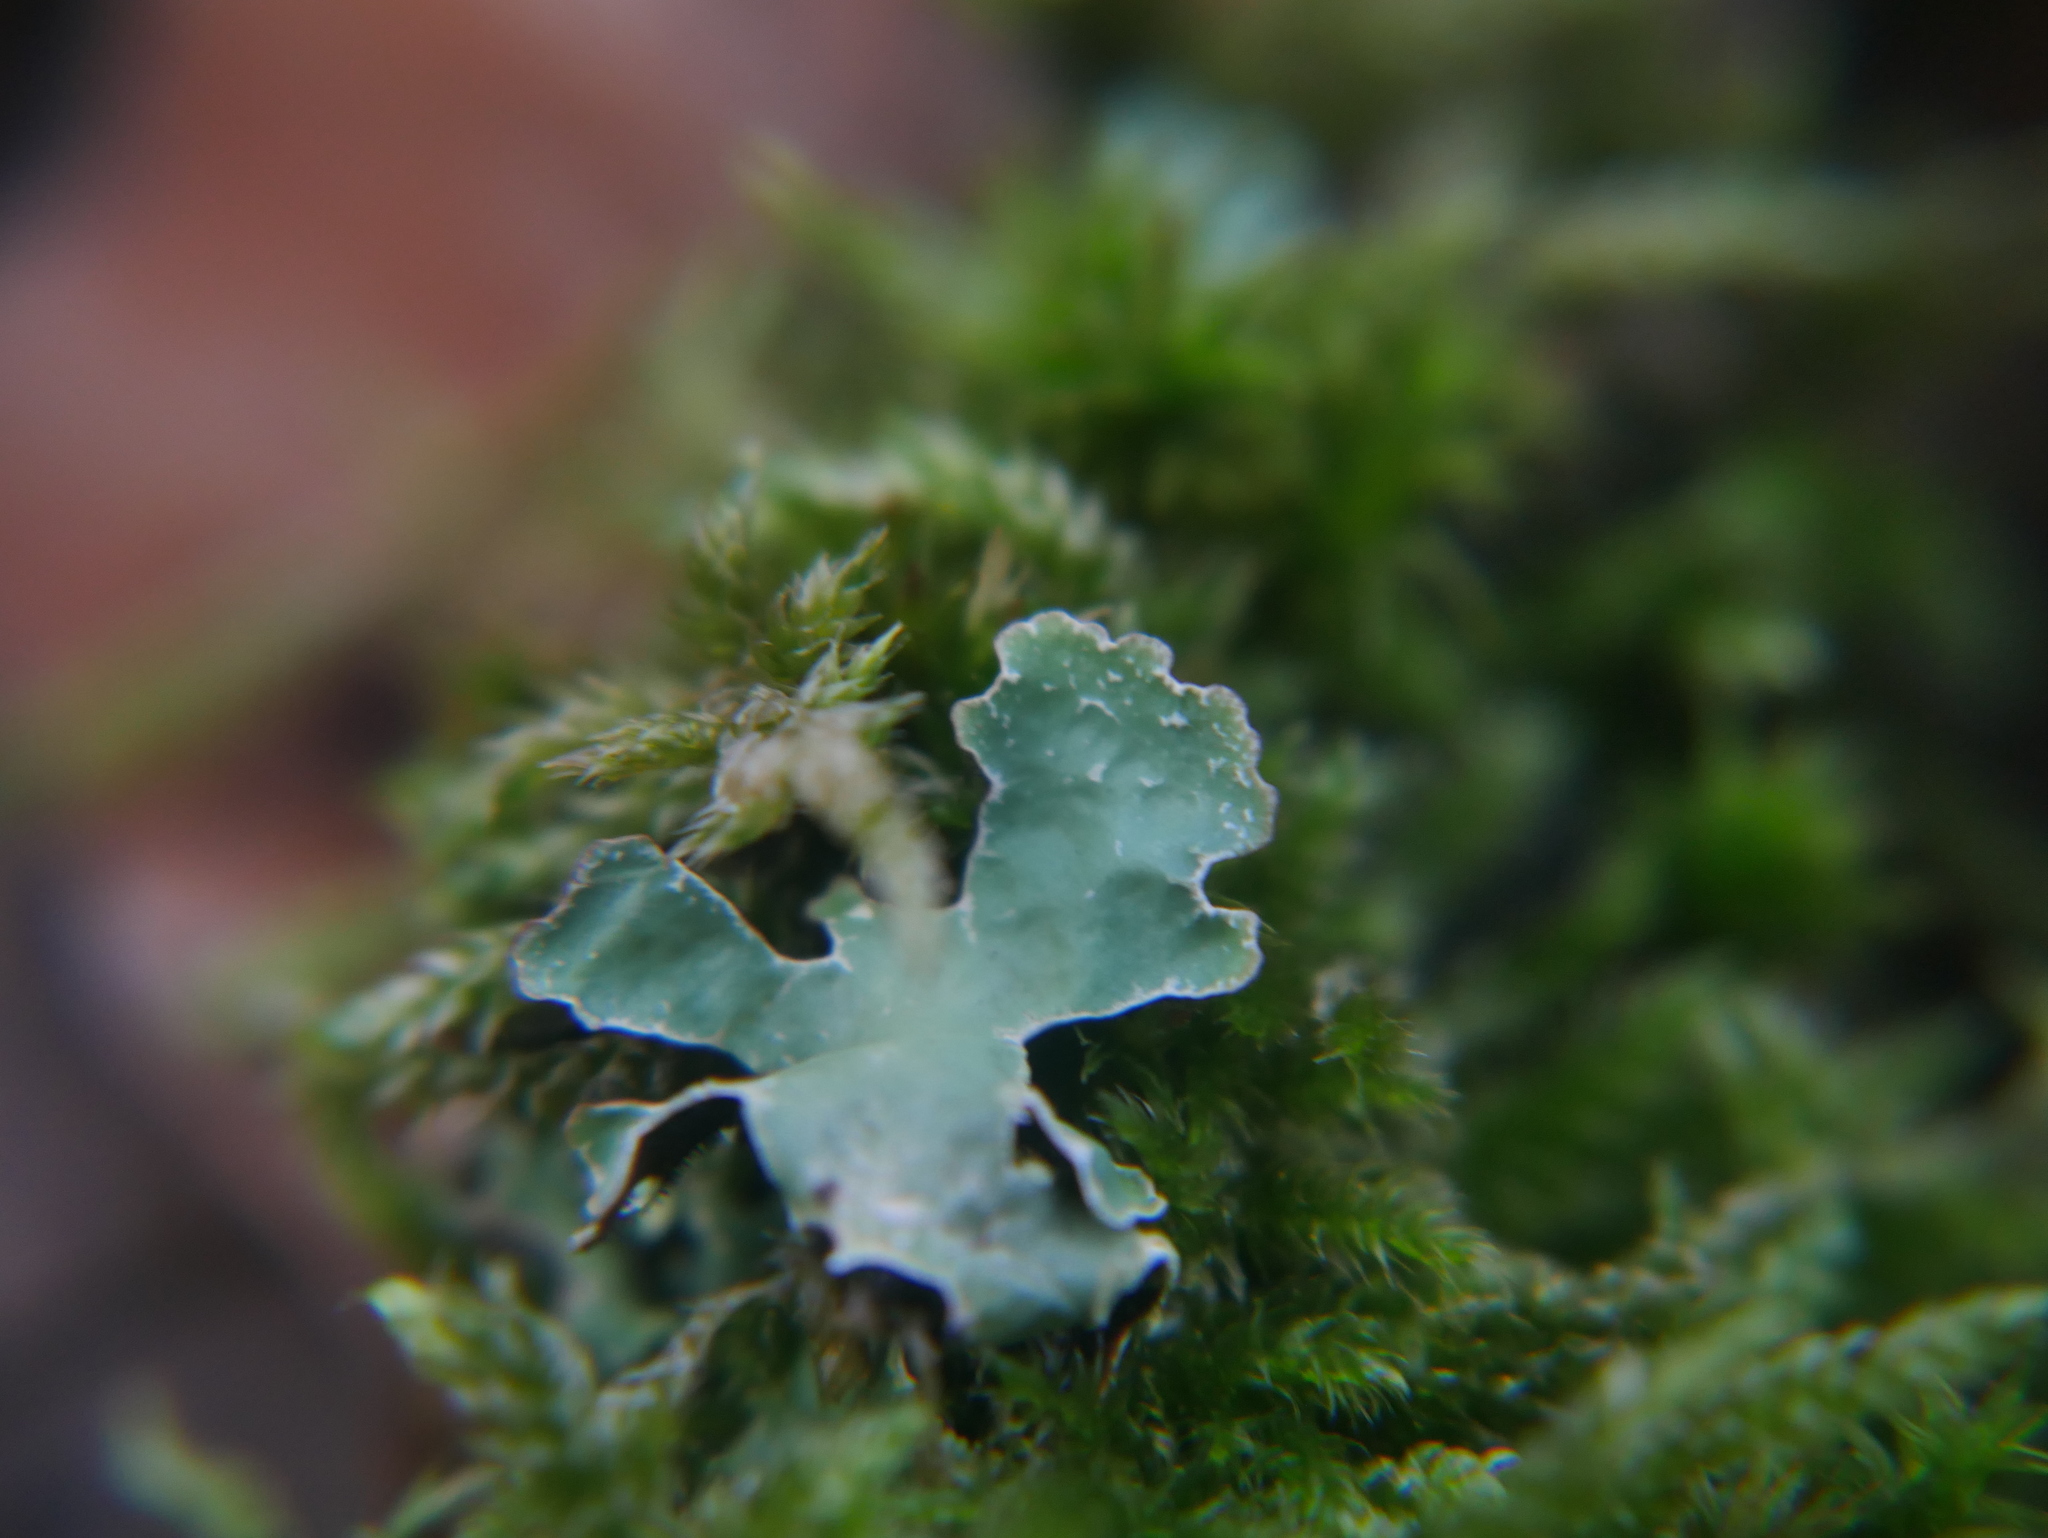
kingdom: Fungi
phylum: Ascomycota
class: Lecanoromycetes
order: Lecanorales
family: Parmeliaceae
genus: Parmelia
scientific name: Parmelia sulcata
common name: Netted shield lichen
